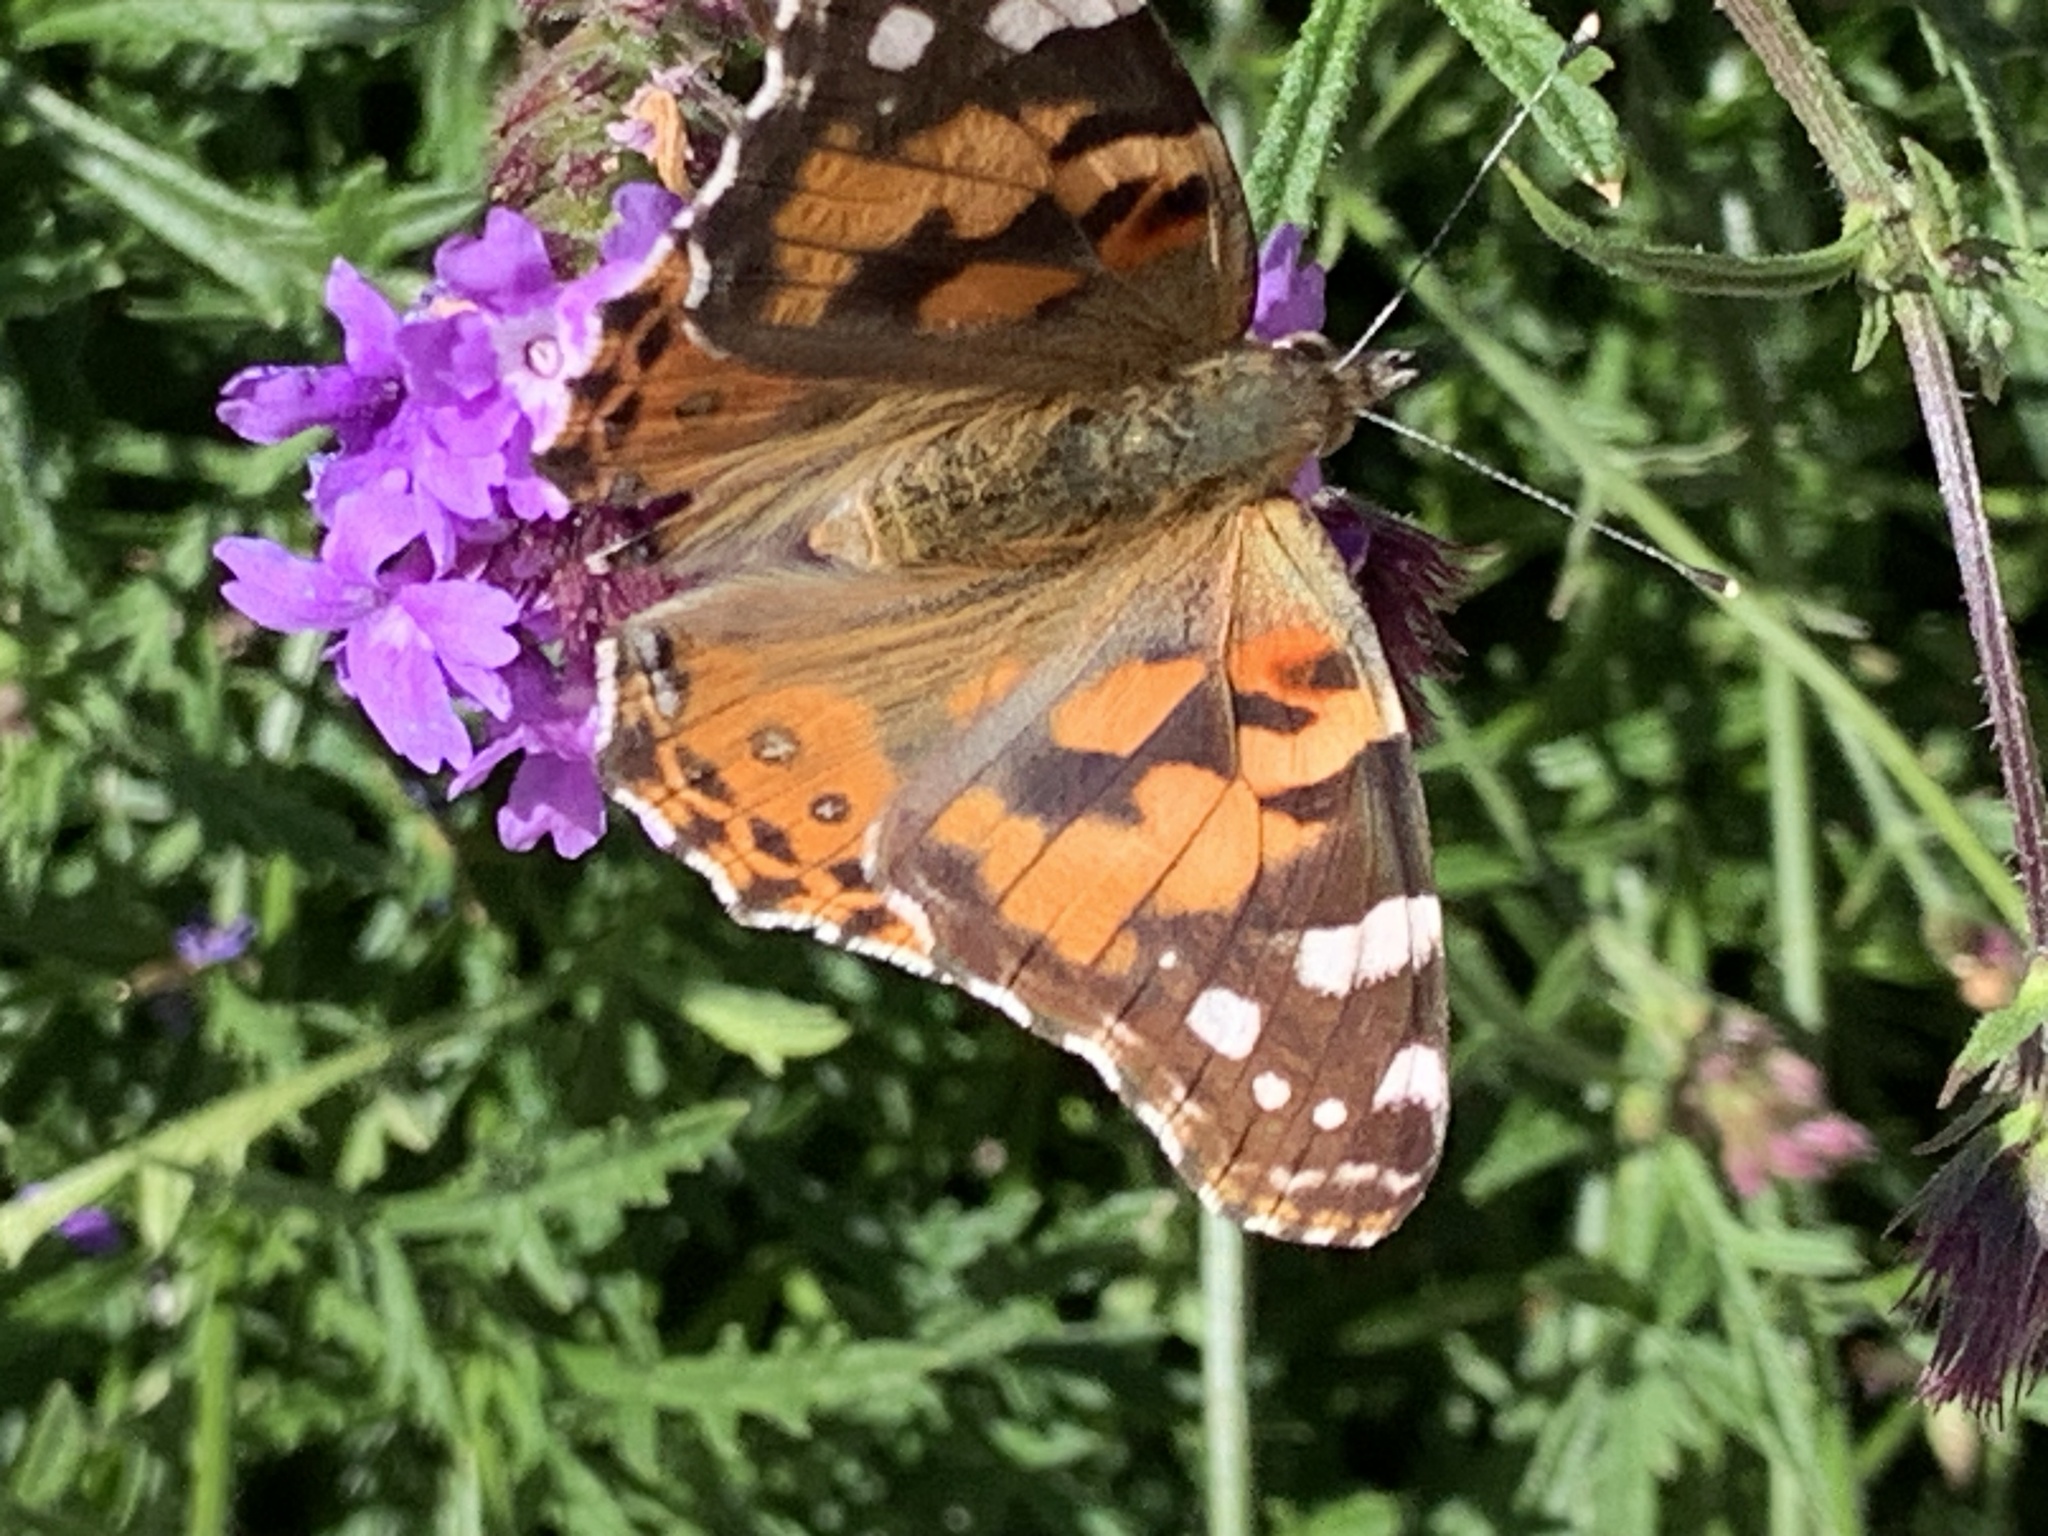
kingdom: Animalia
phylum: Arthropoda
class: Insecta
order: Lepidoptera
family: Nymphalidae
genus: Vanessa
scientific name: Vanessa cardui
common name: Painted lady
